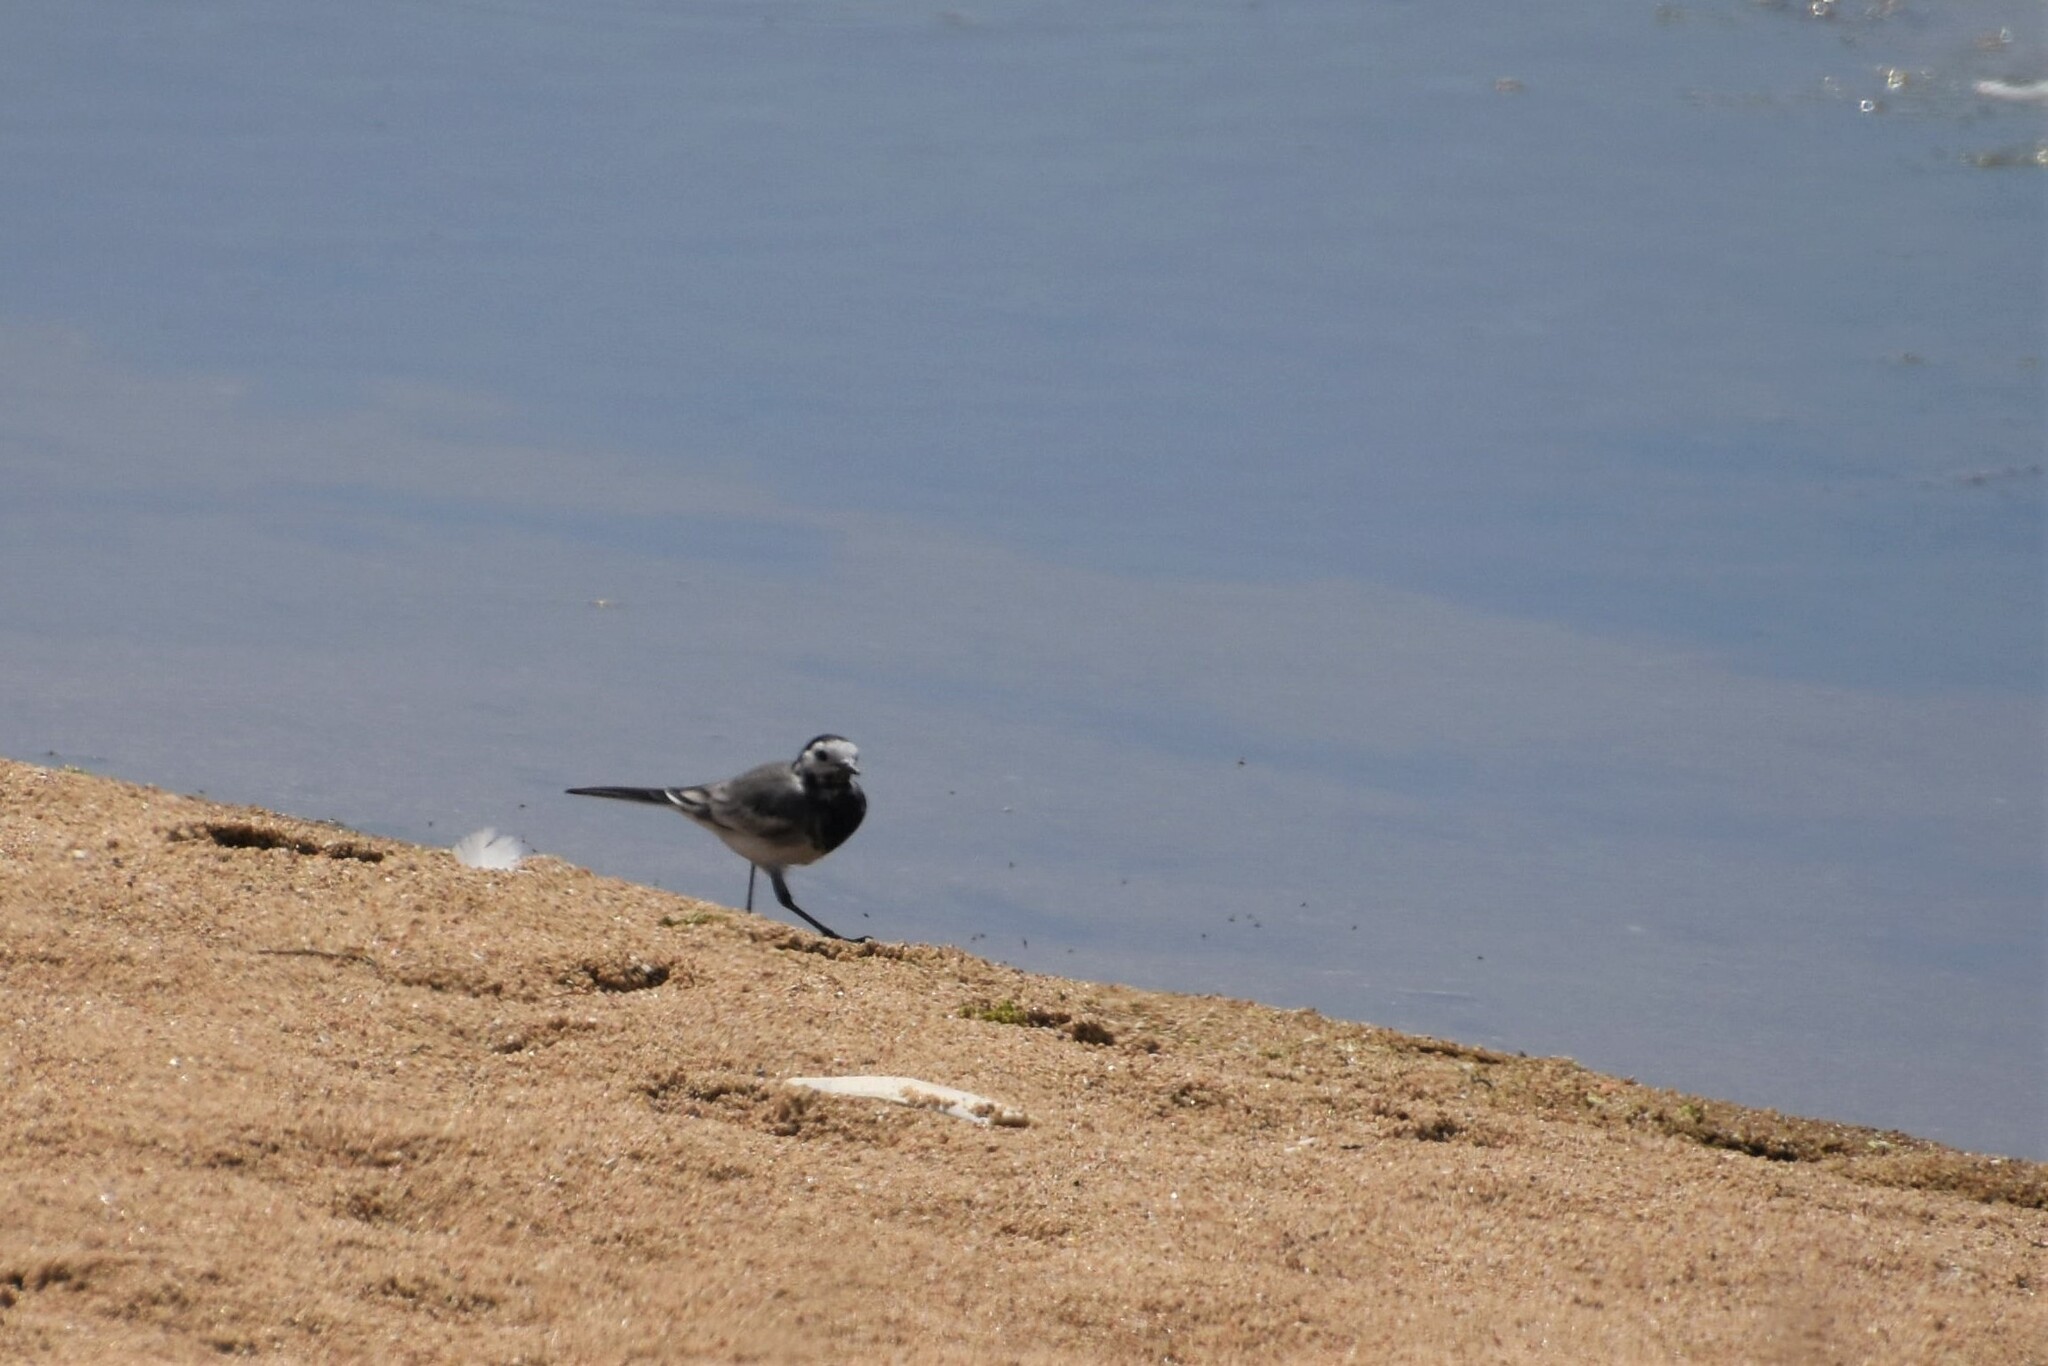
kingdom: Animalia
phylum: Chordata
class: Aves
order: Passeriformes
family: Motacillidae
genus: Motacilla
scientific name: Motacilla alba
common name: White wagtail
